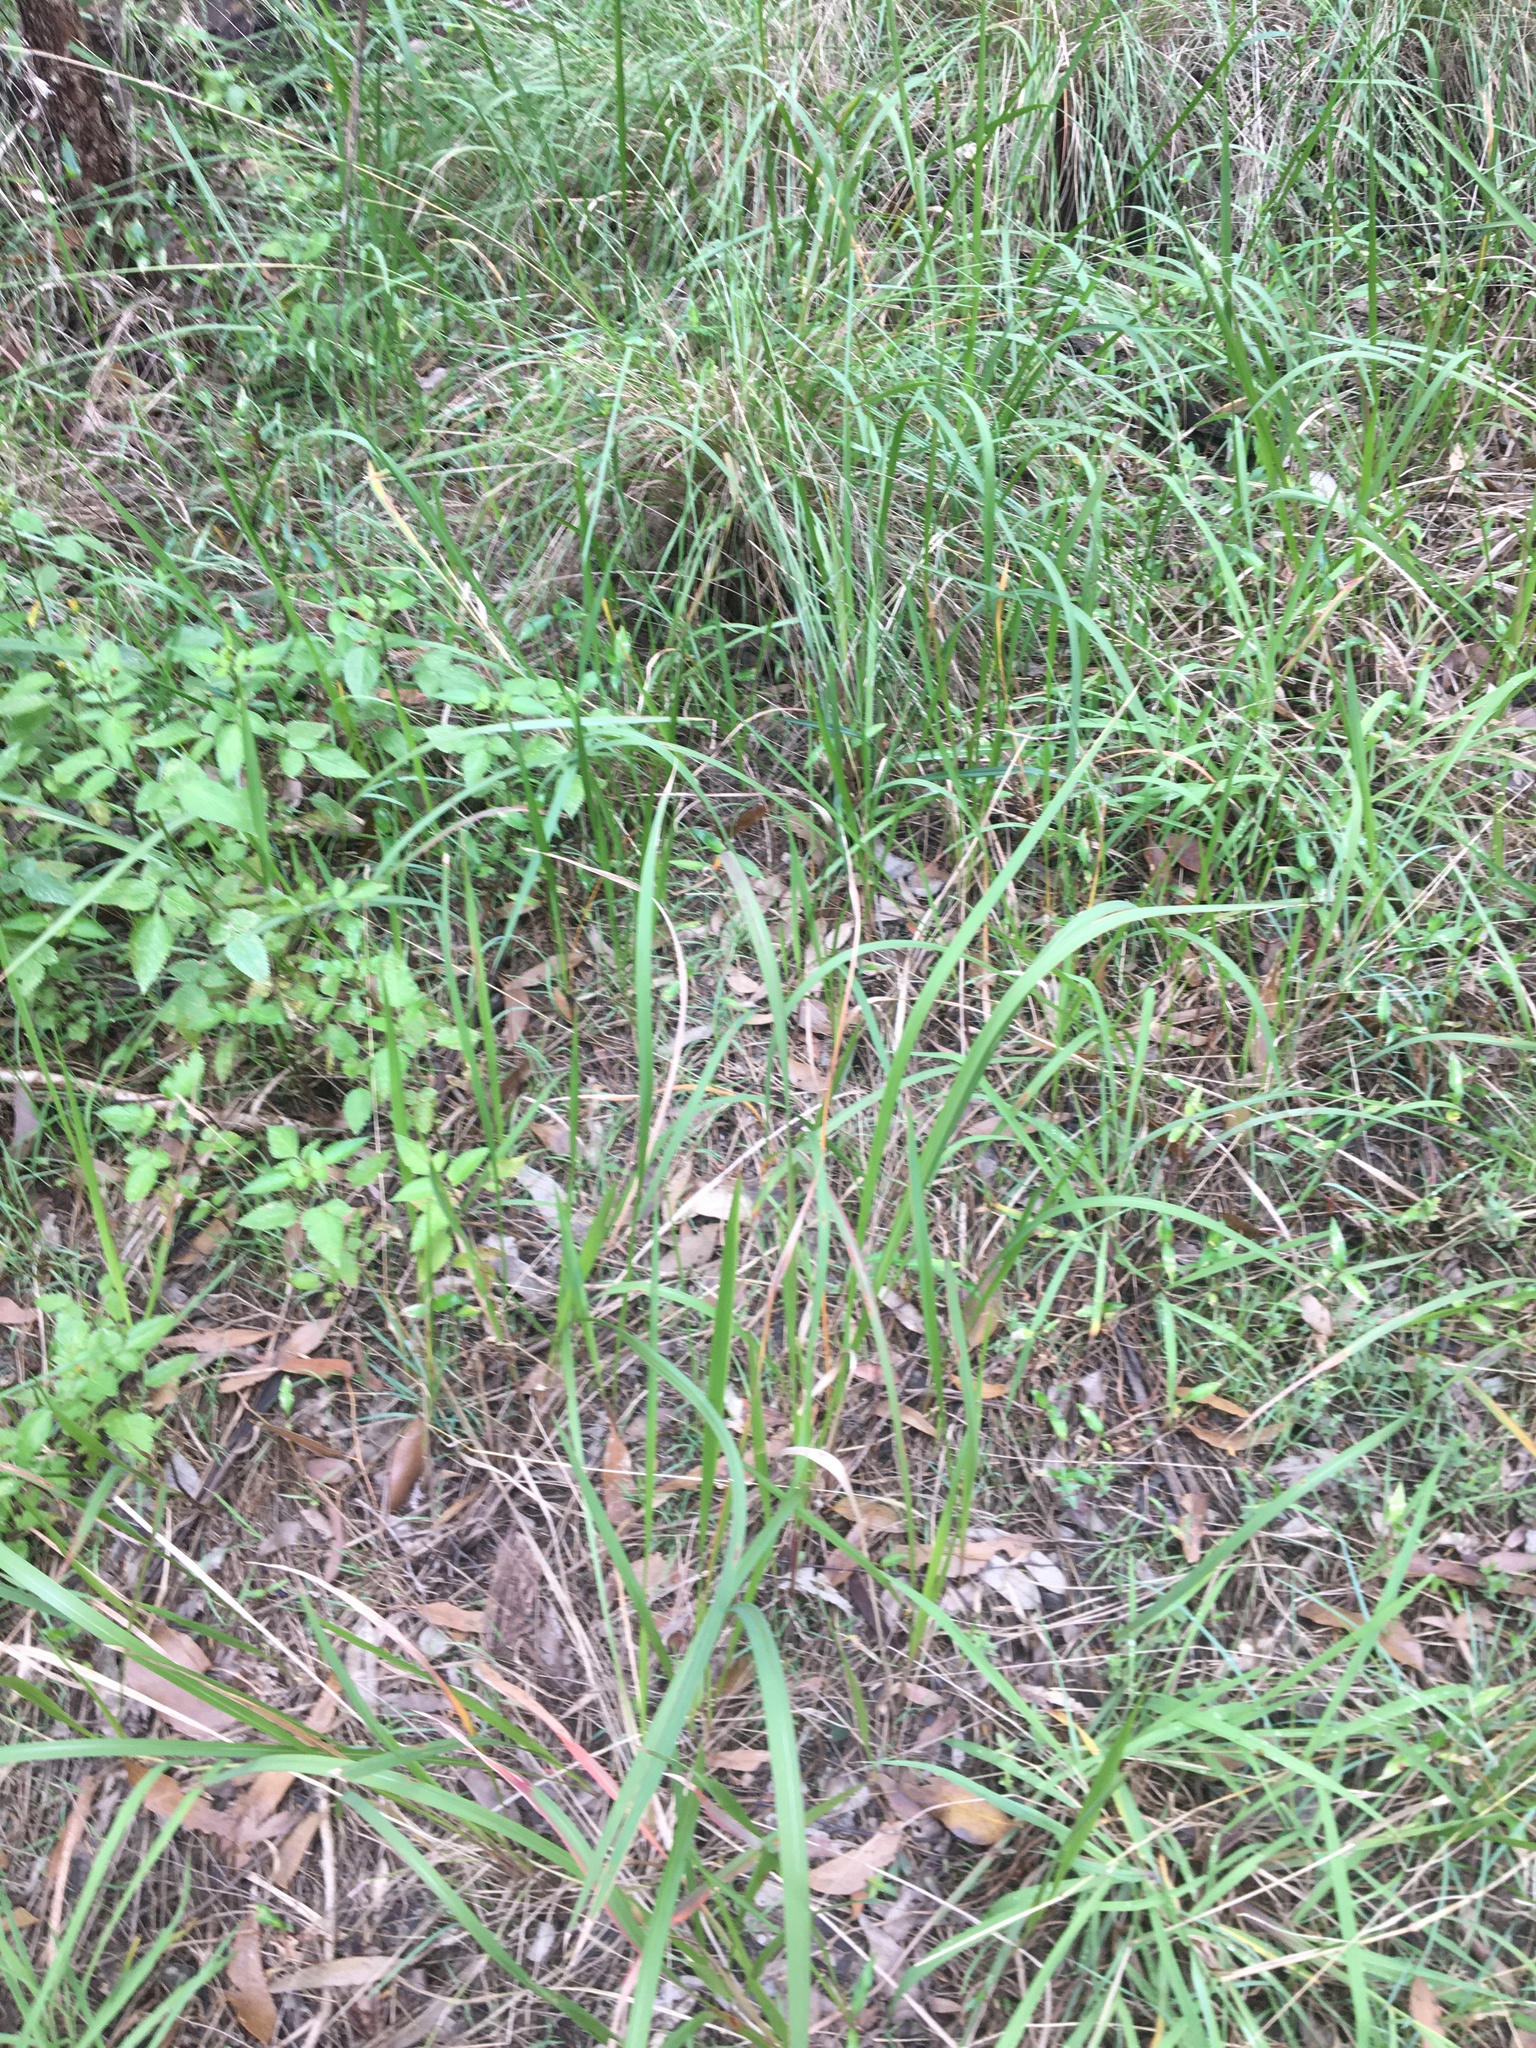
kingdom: Plantae
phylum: Tracheophyta
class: Liliopsida
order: Poales
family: Poaceae
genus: Imperata
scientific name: Imperata cylindrica
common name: Cogongrass
